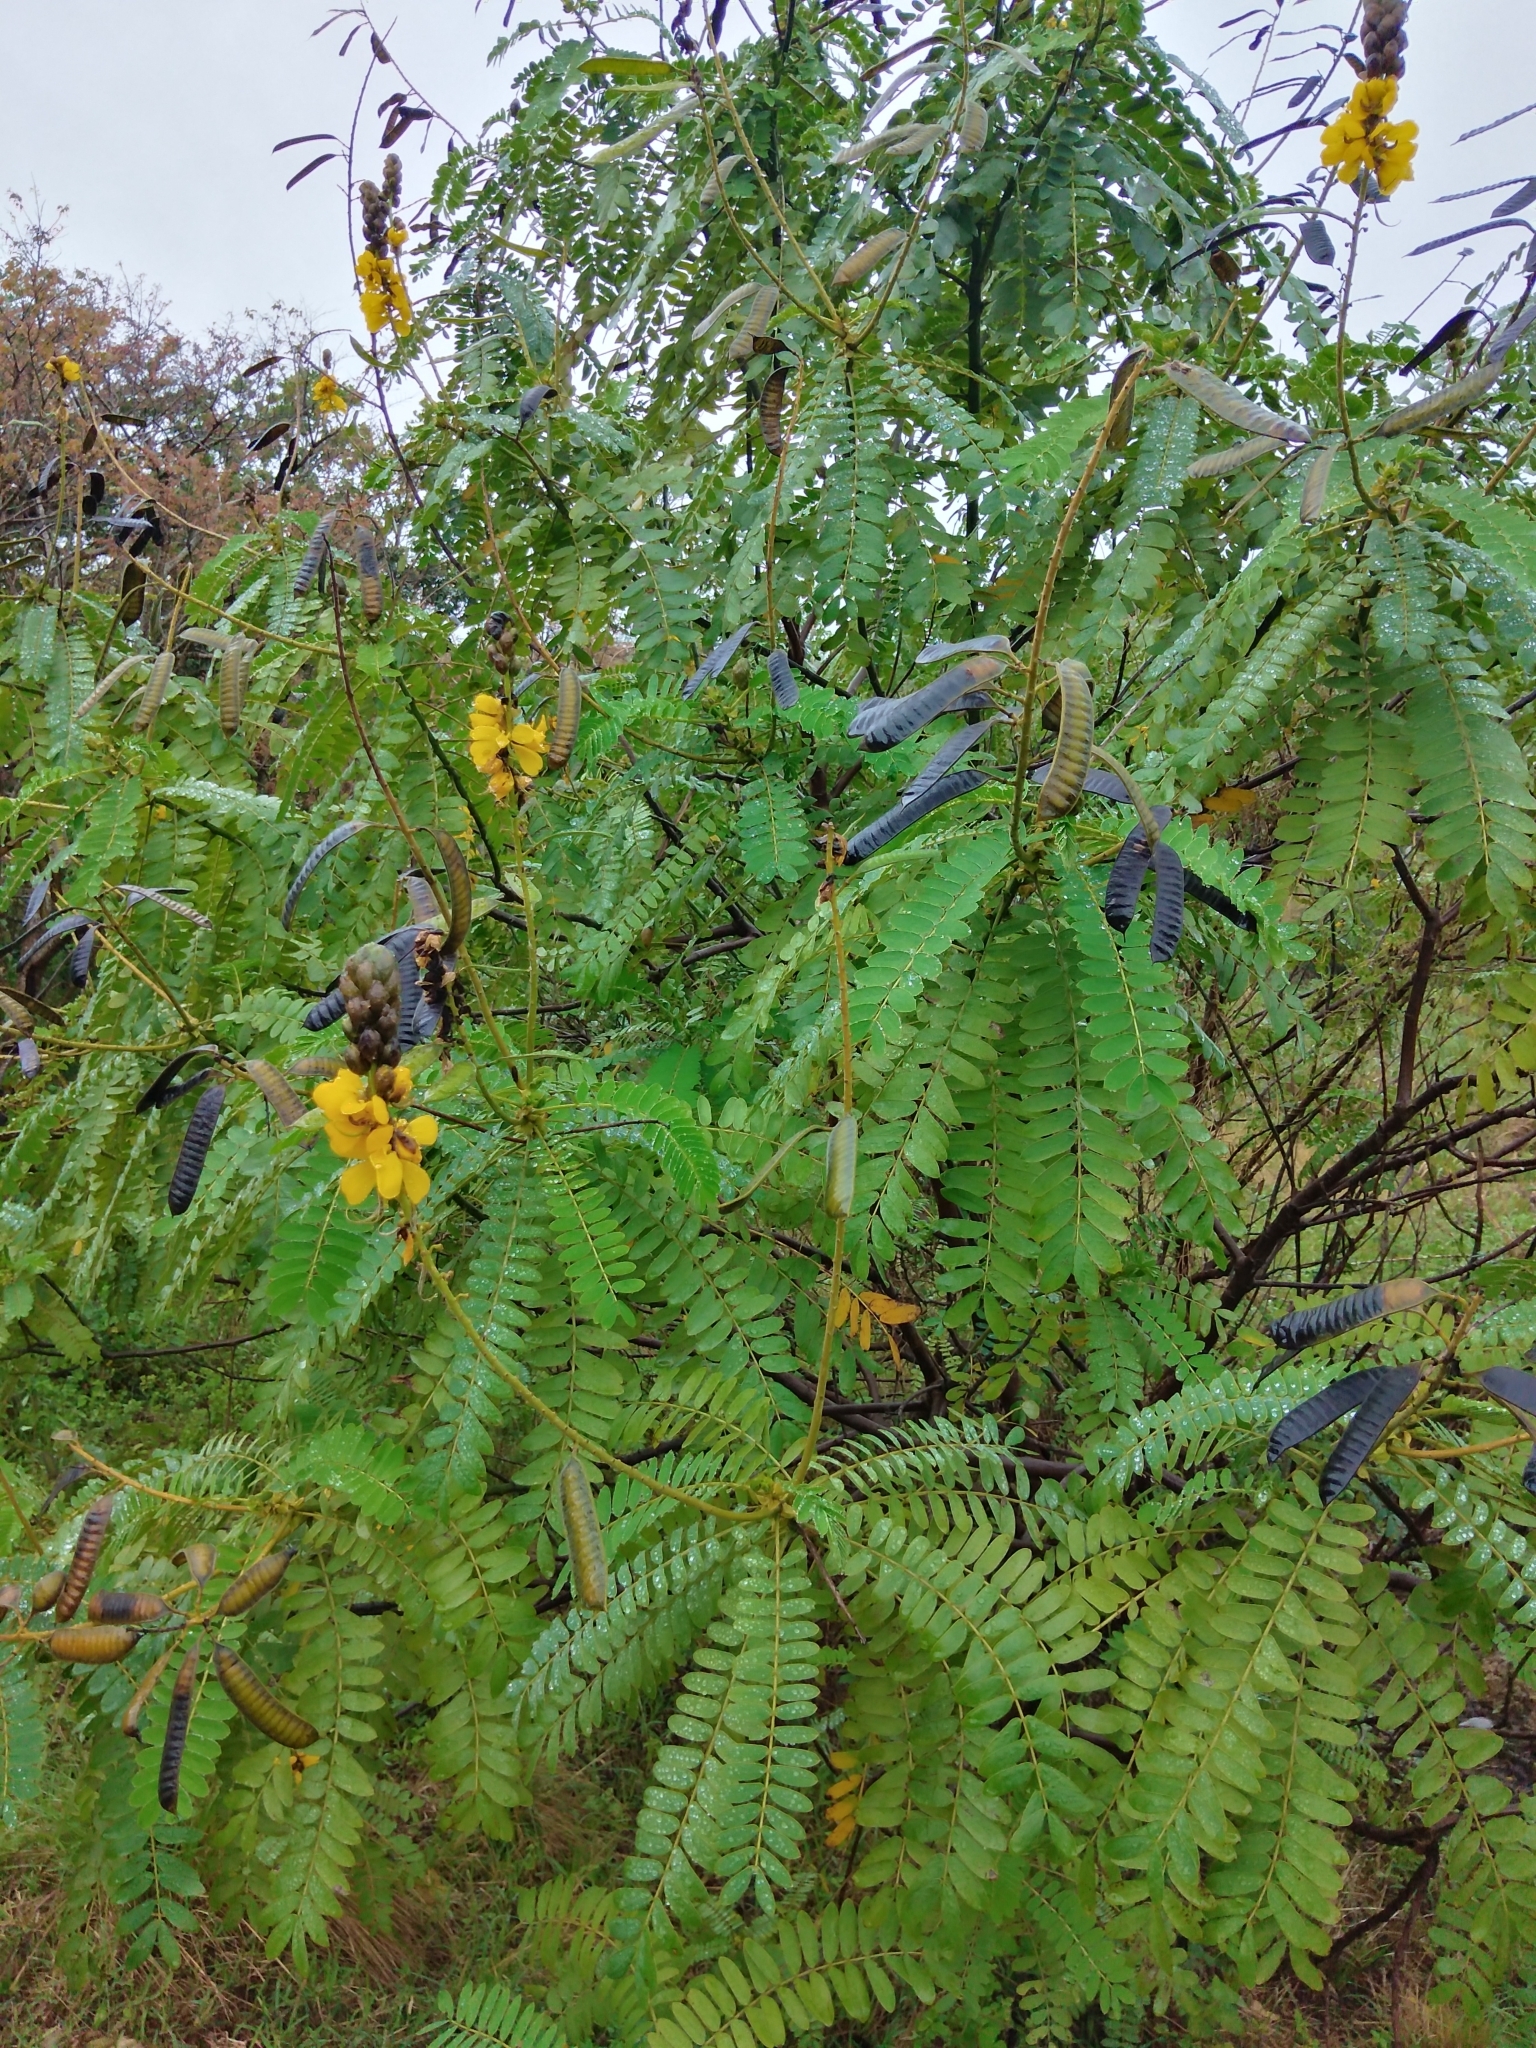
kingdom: Plantae
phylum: Tracheophyta
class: Magnoliopsida
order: Fabales
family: Fabaceae
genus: Senna
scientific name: Senna didymobotrya
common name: African senna
